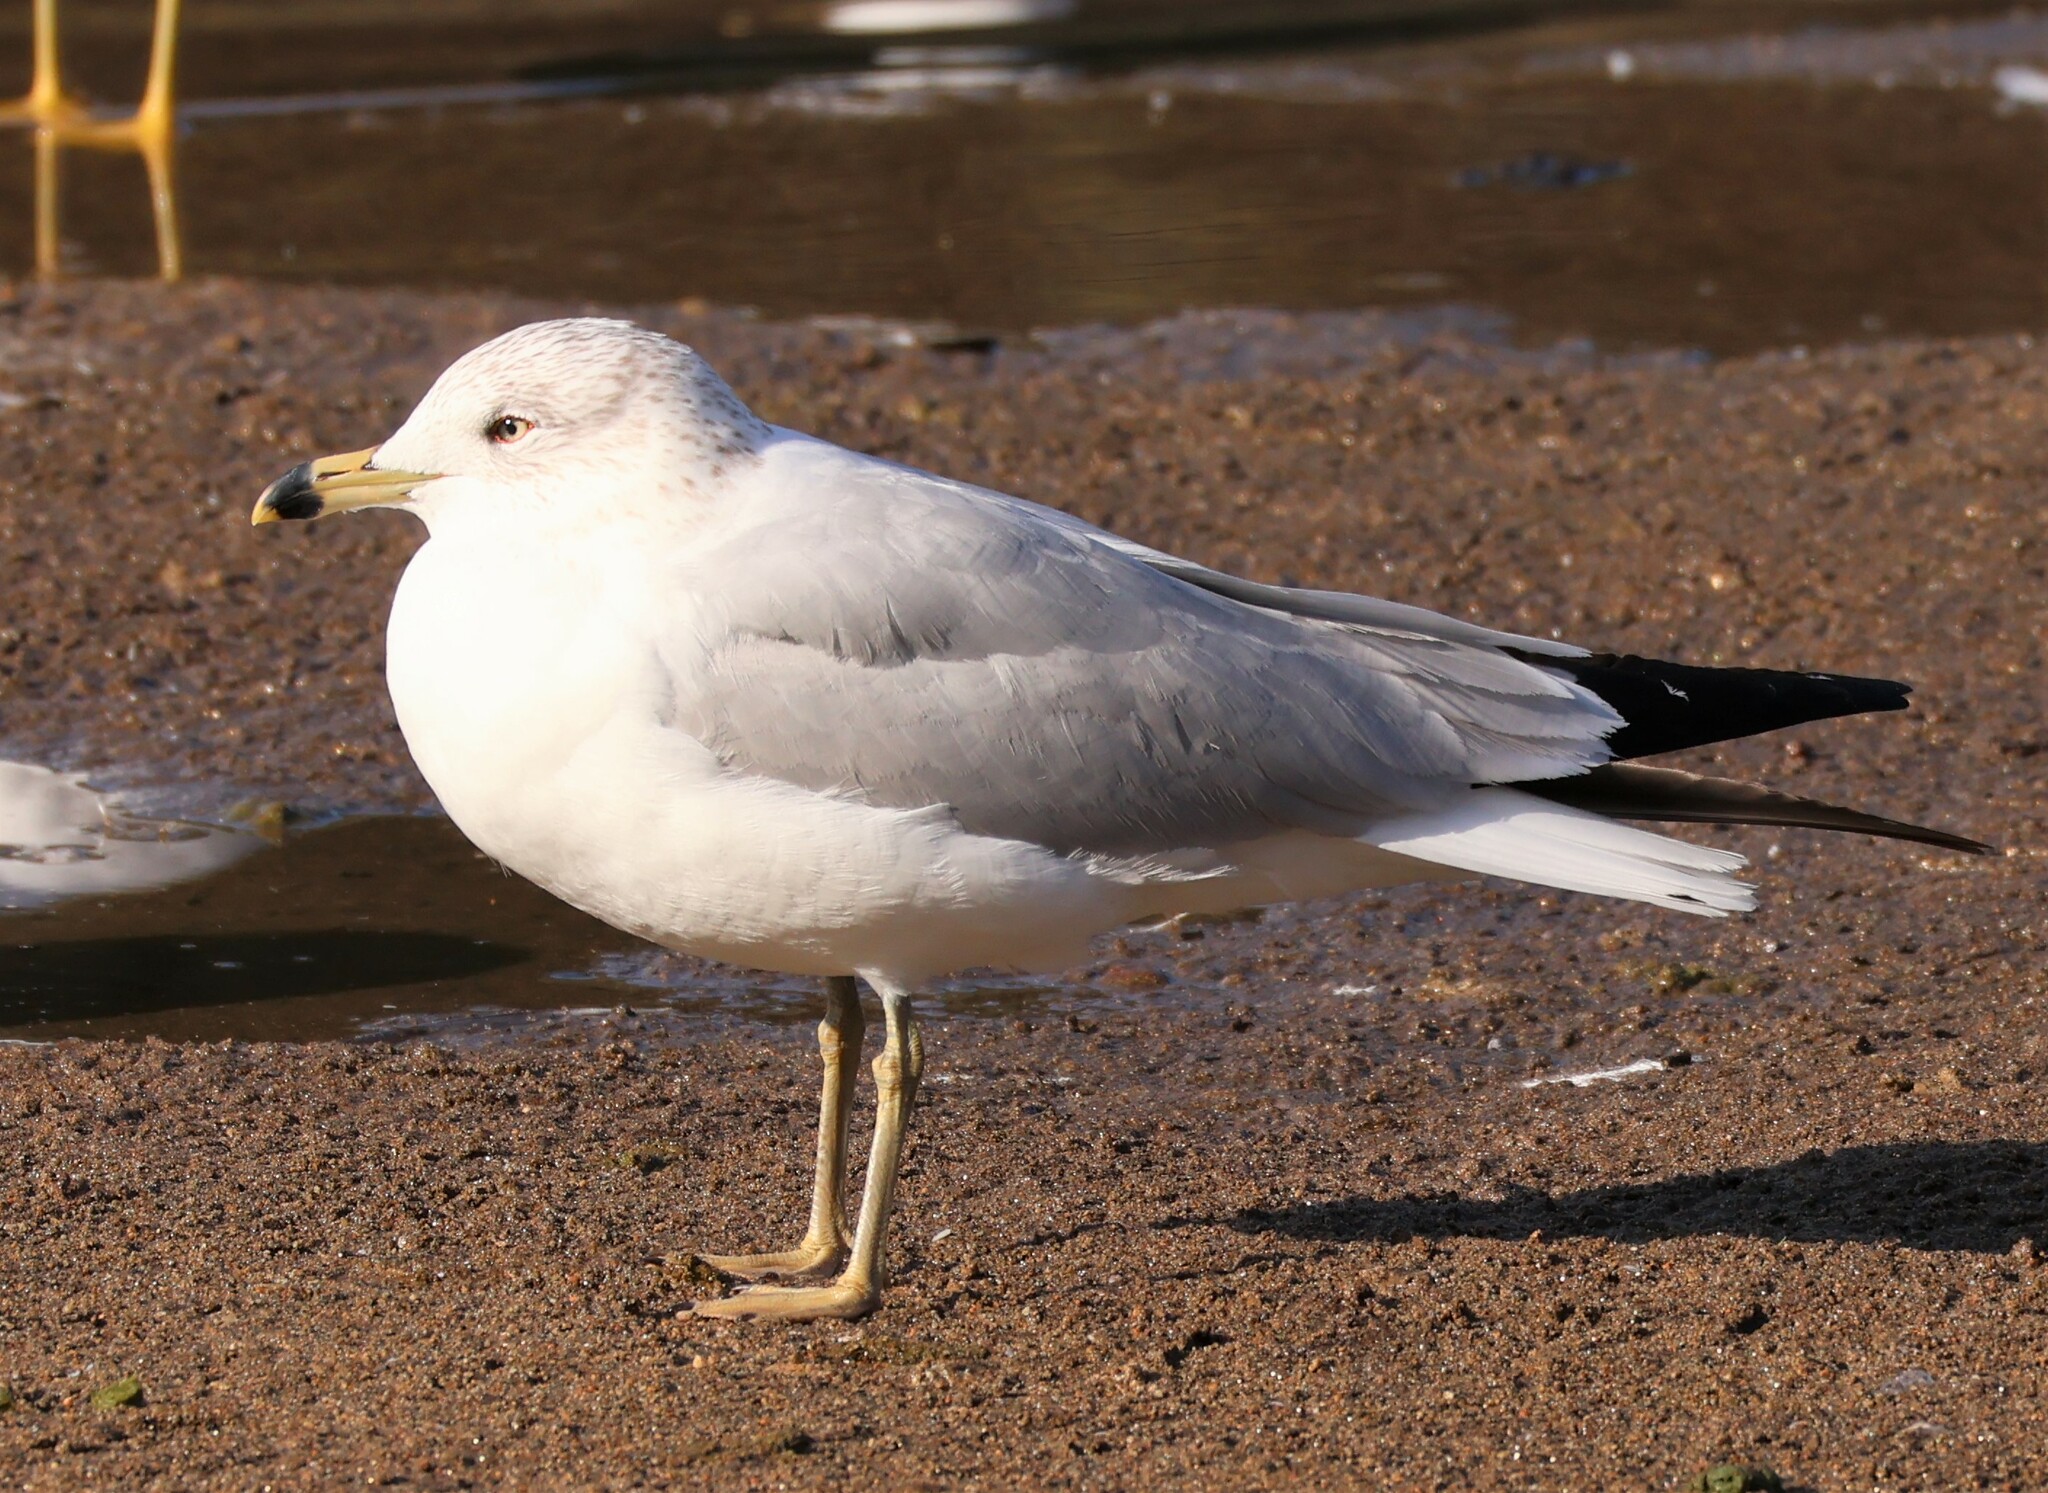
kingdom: Animalia
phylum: Chordata
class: Aves
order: Charadriiformes
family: Laridae
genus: Larus
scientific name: Larus delawarensis
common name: Ring-billed gull
